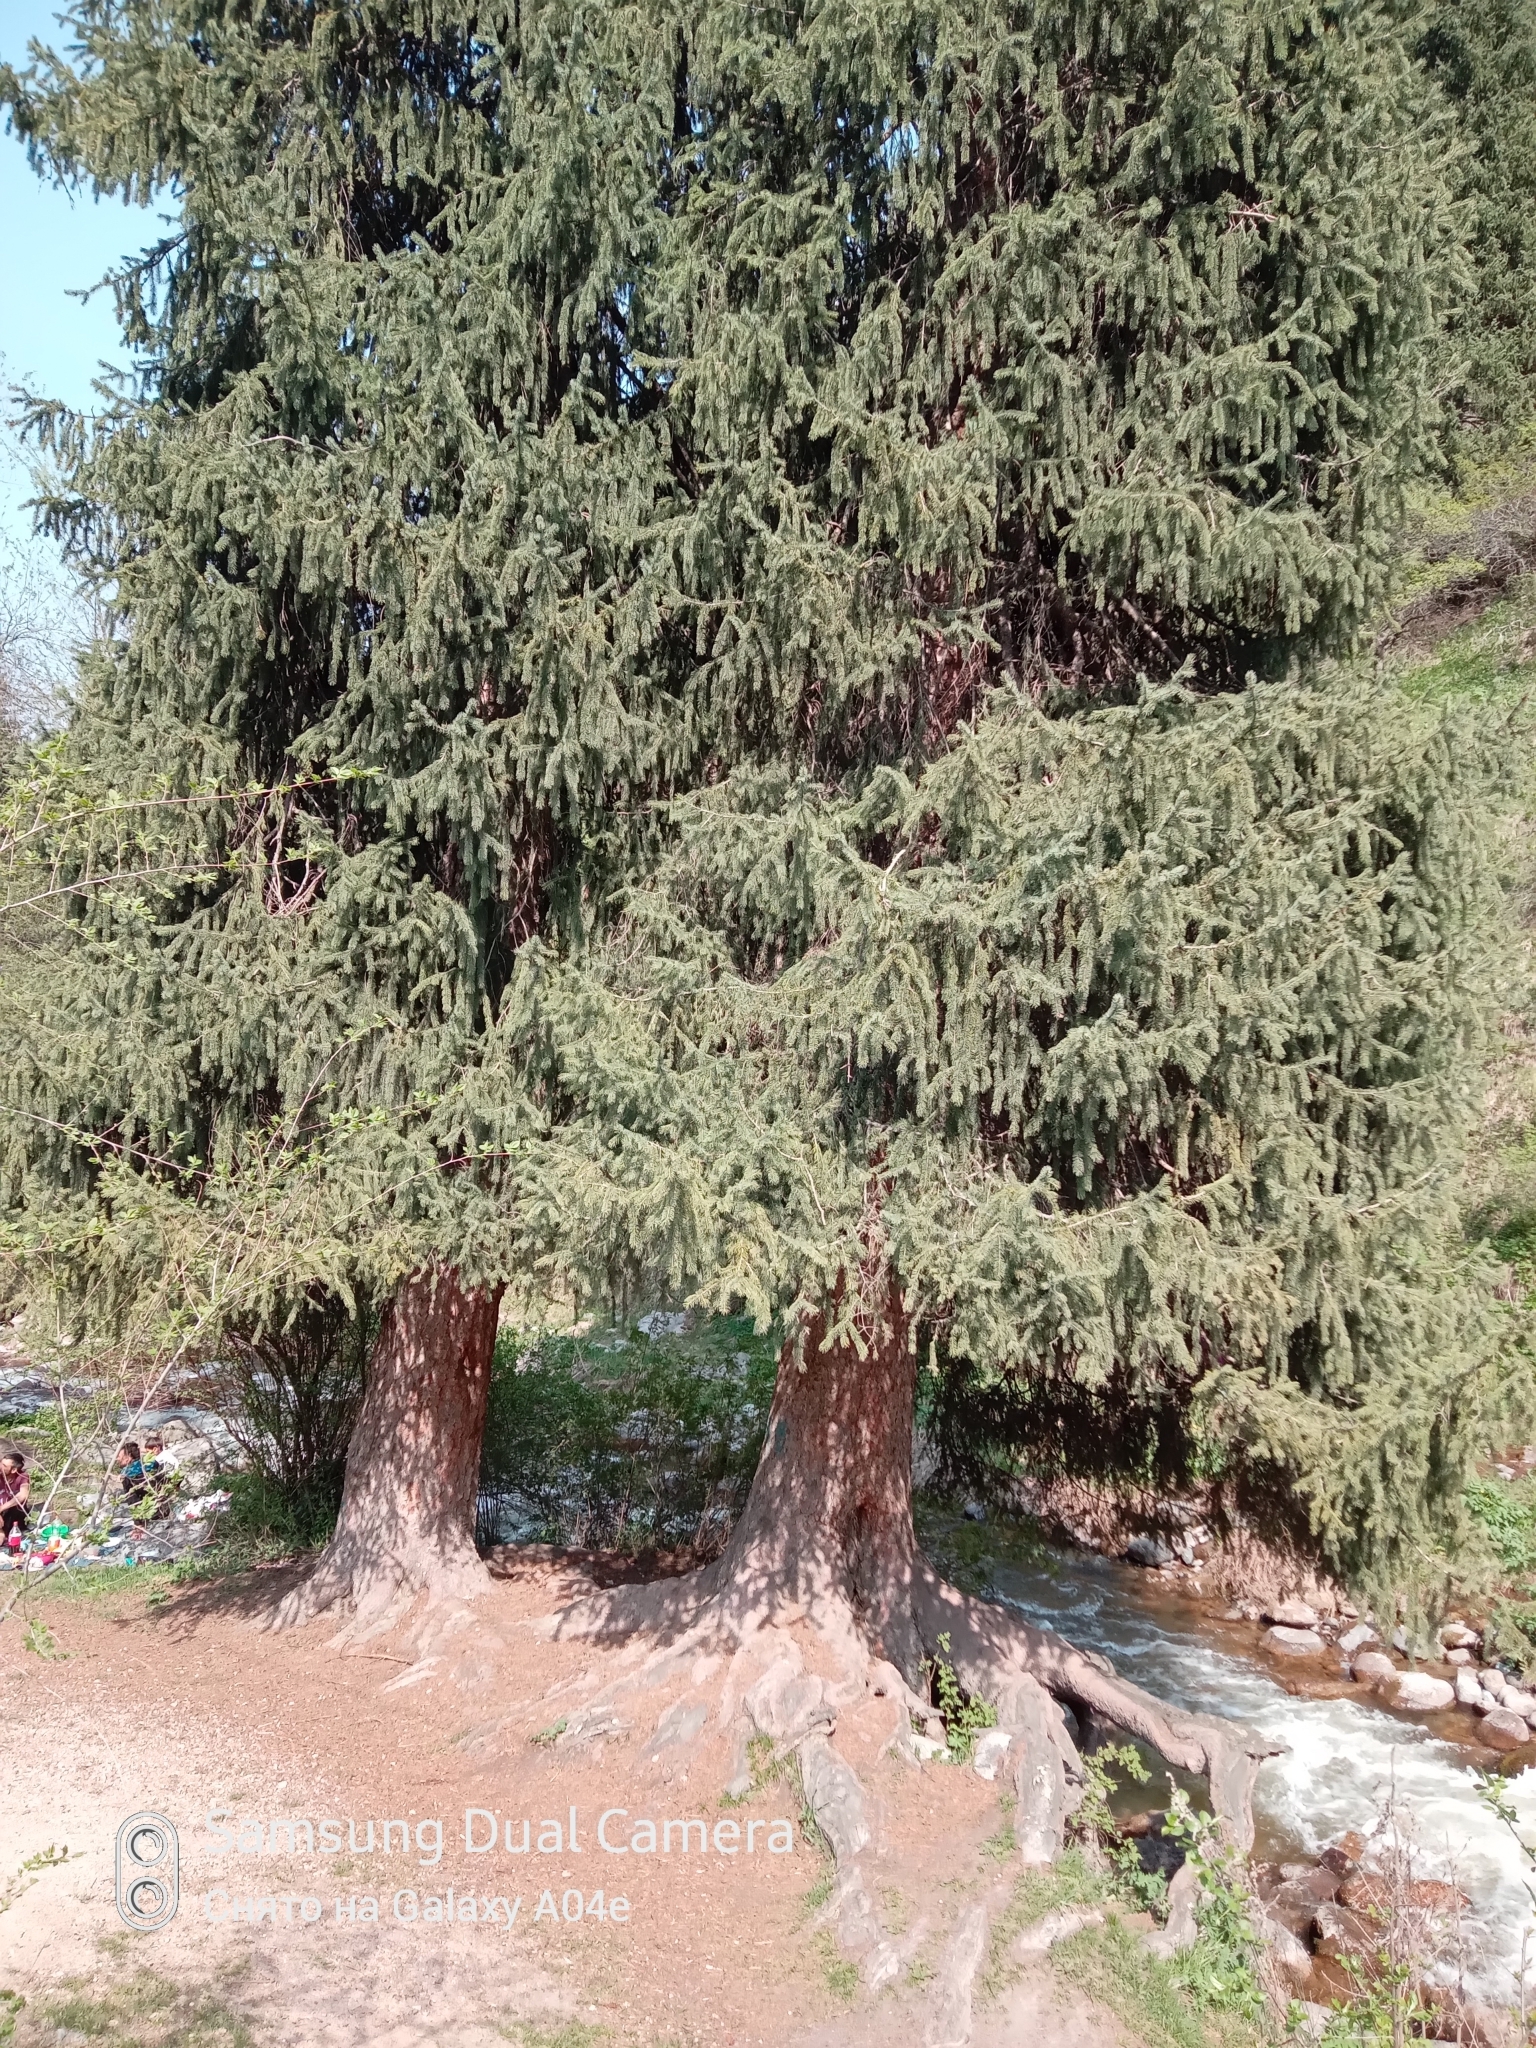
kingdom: Plantae
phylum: Tracheophyta
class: Pinopsida
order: Pinales
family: Pinaceae
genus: Picea
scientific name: Picea schrenkiana
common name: Asian spruce
